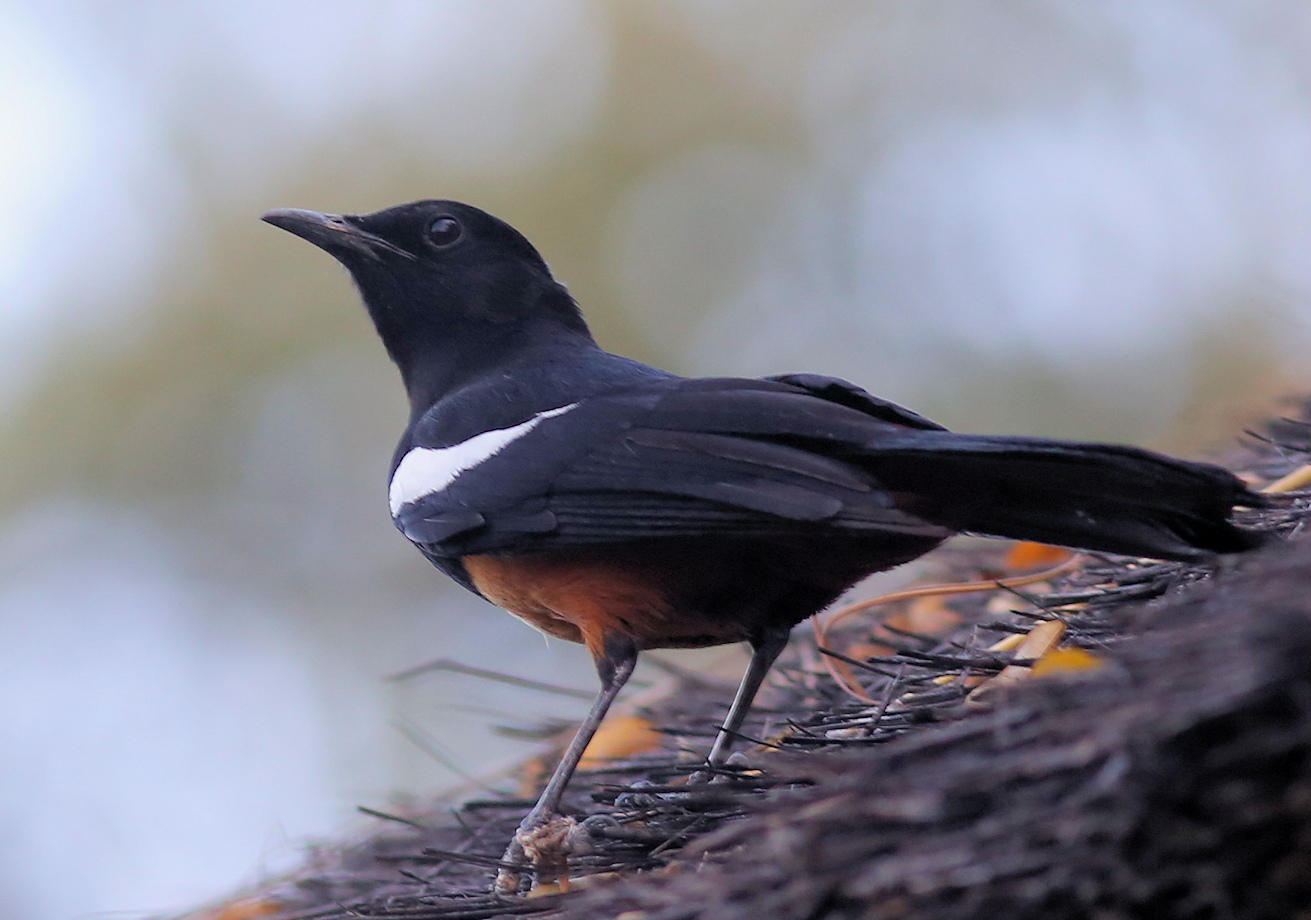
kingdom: Animalia
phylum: Chordata
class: Aves
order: Passeriformes
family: Muscicapidae
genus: Thamnolaea
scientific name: Thamnolaea cinnamomeiventris
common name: Mocking cliff chat
